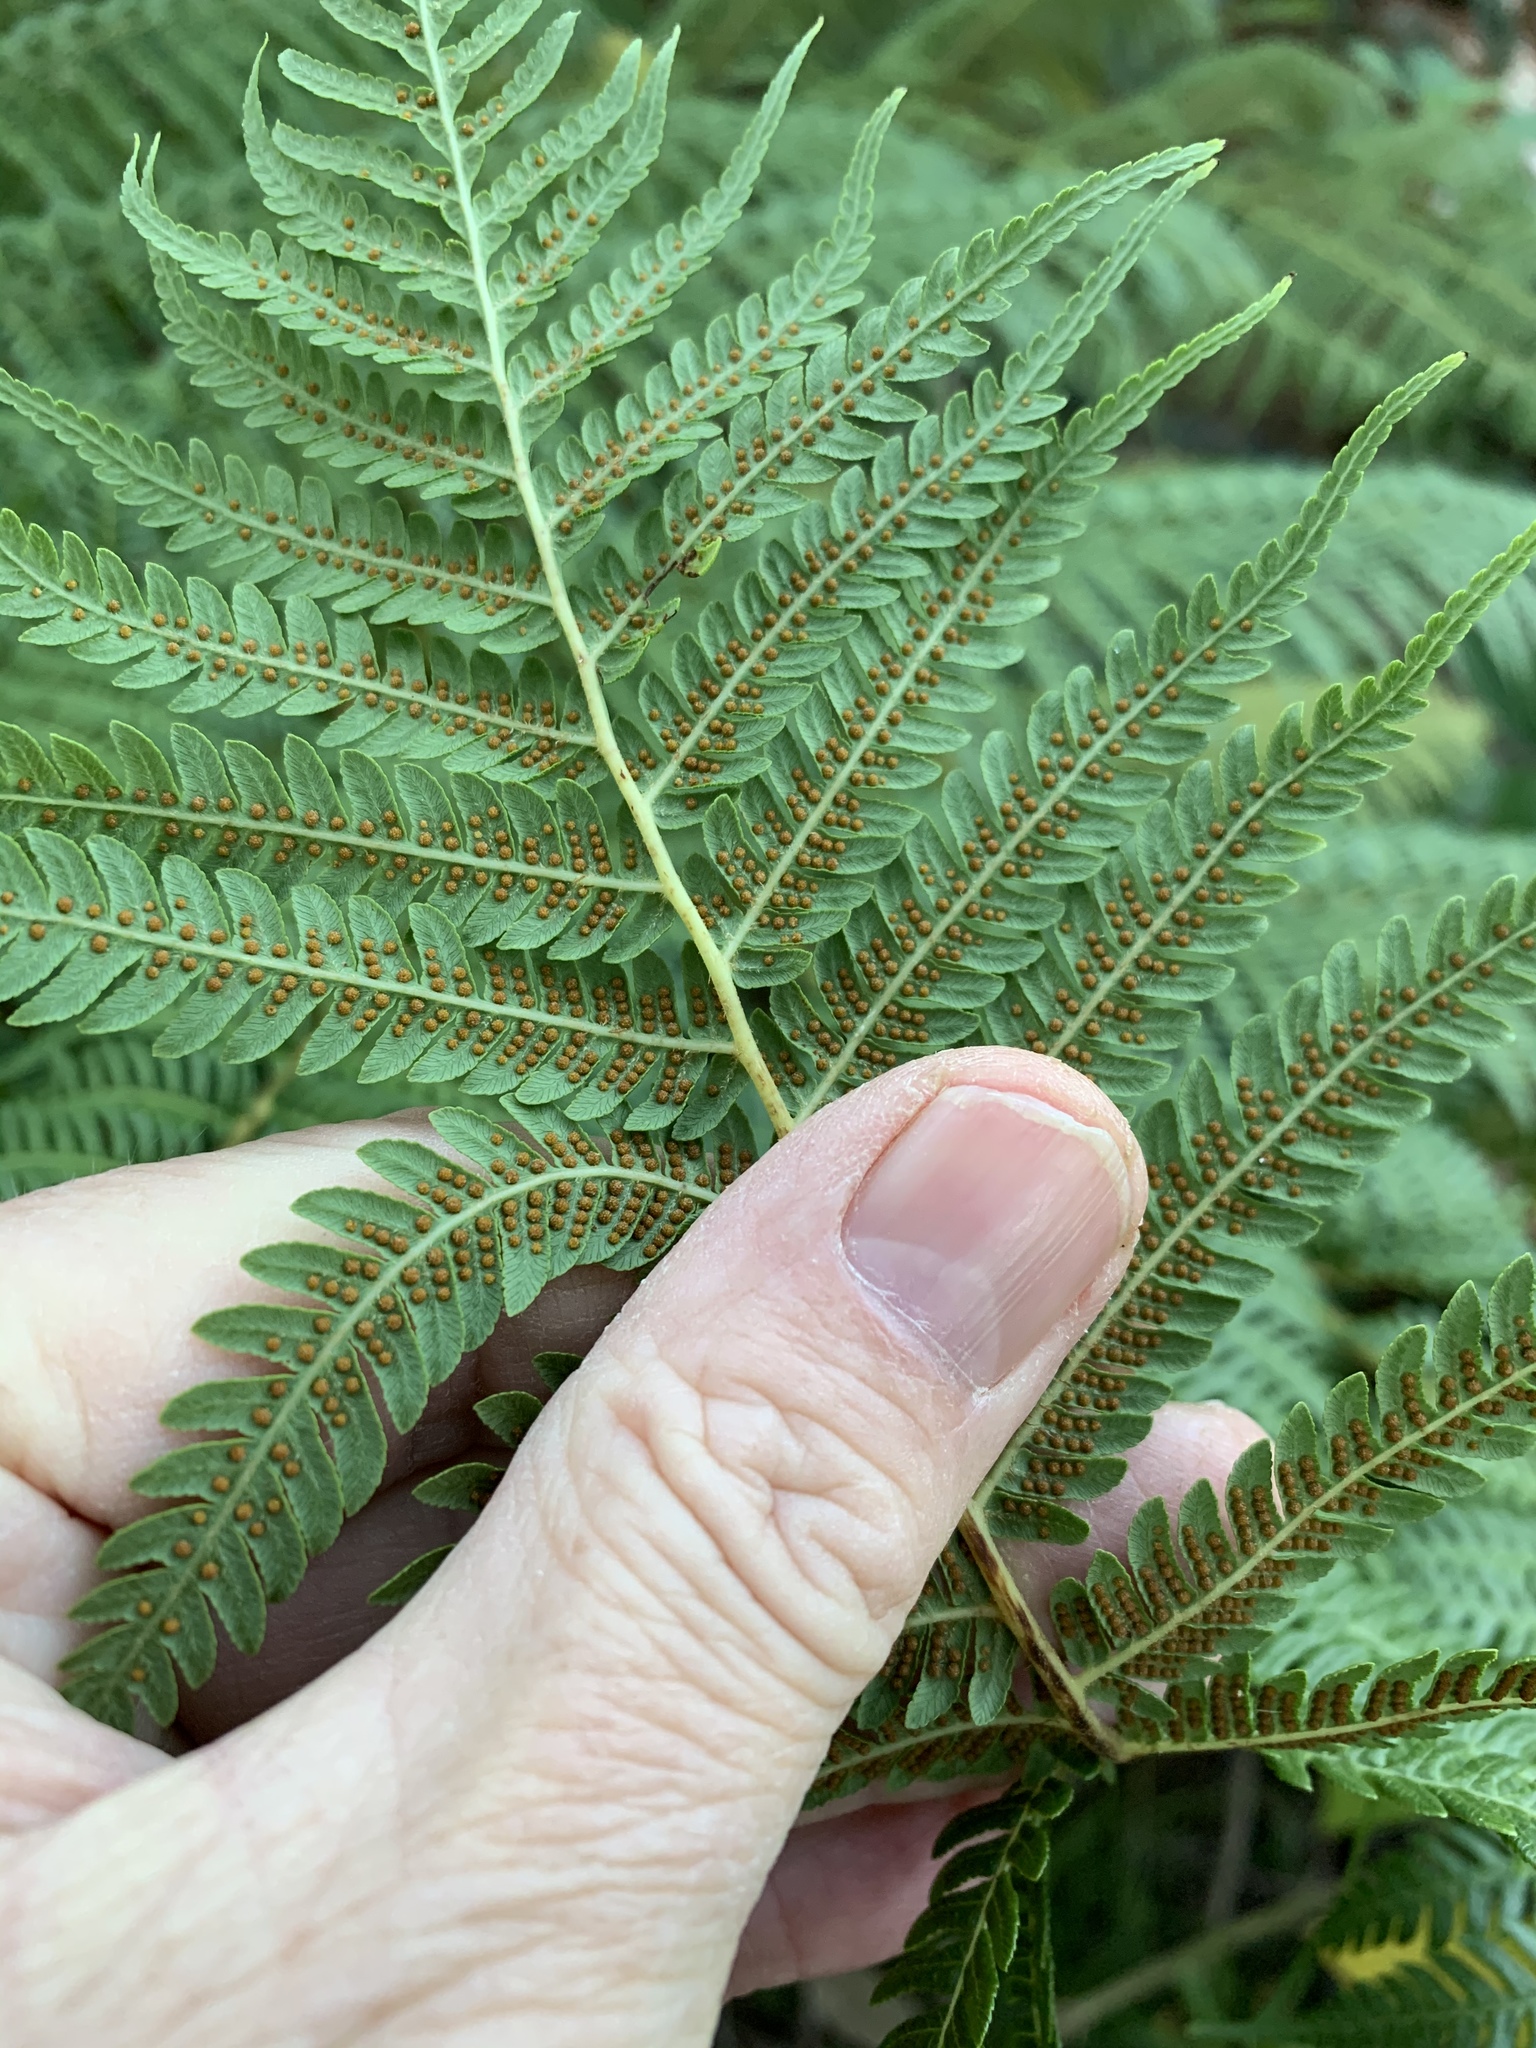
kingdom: Plantae
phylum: Tracheophyta
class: Polypodiopsida
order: Cyatheales
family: Cyatheaceae
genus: Sphaeropteris
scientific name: Sphaeropteris cooperi
